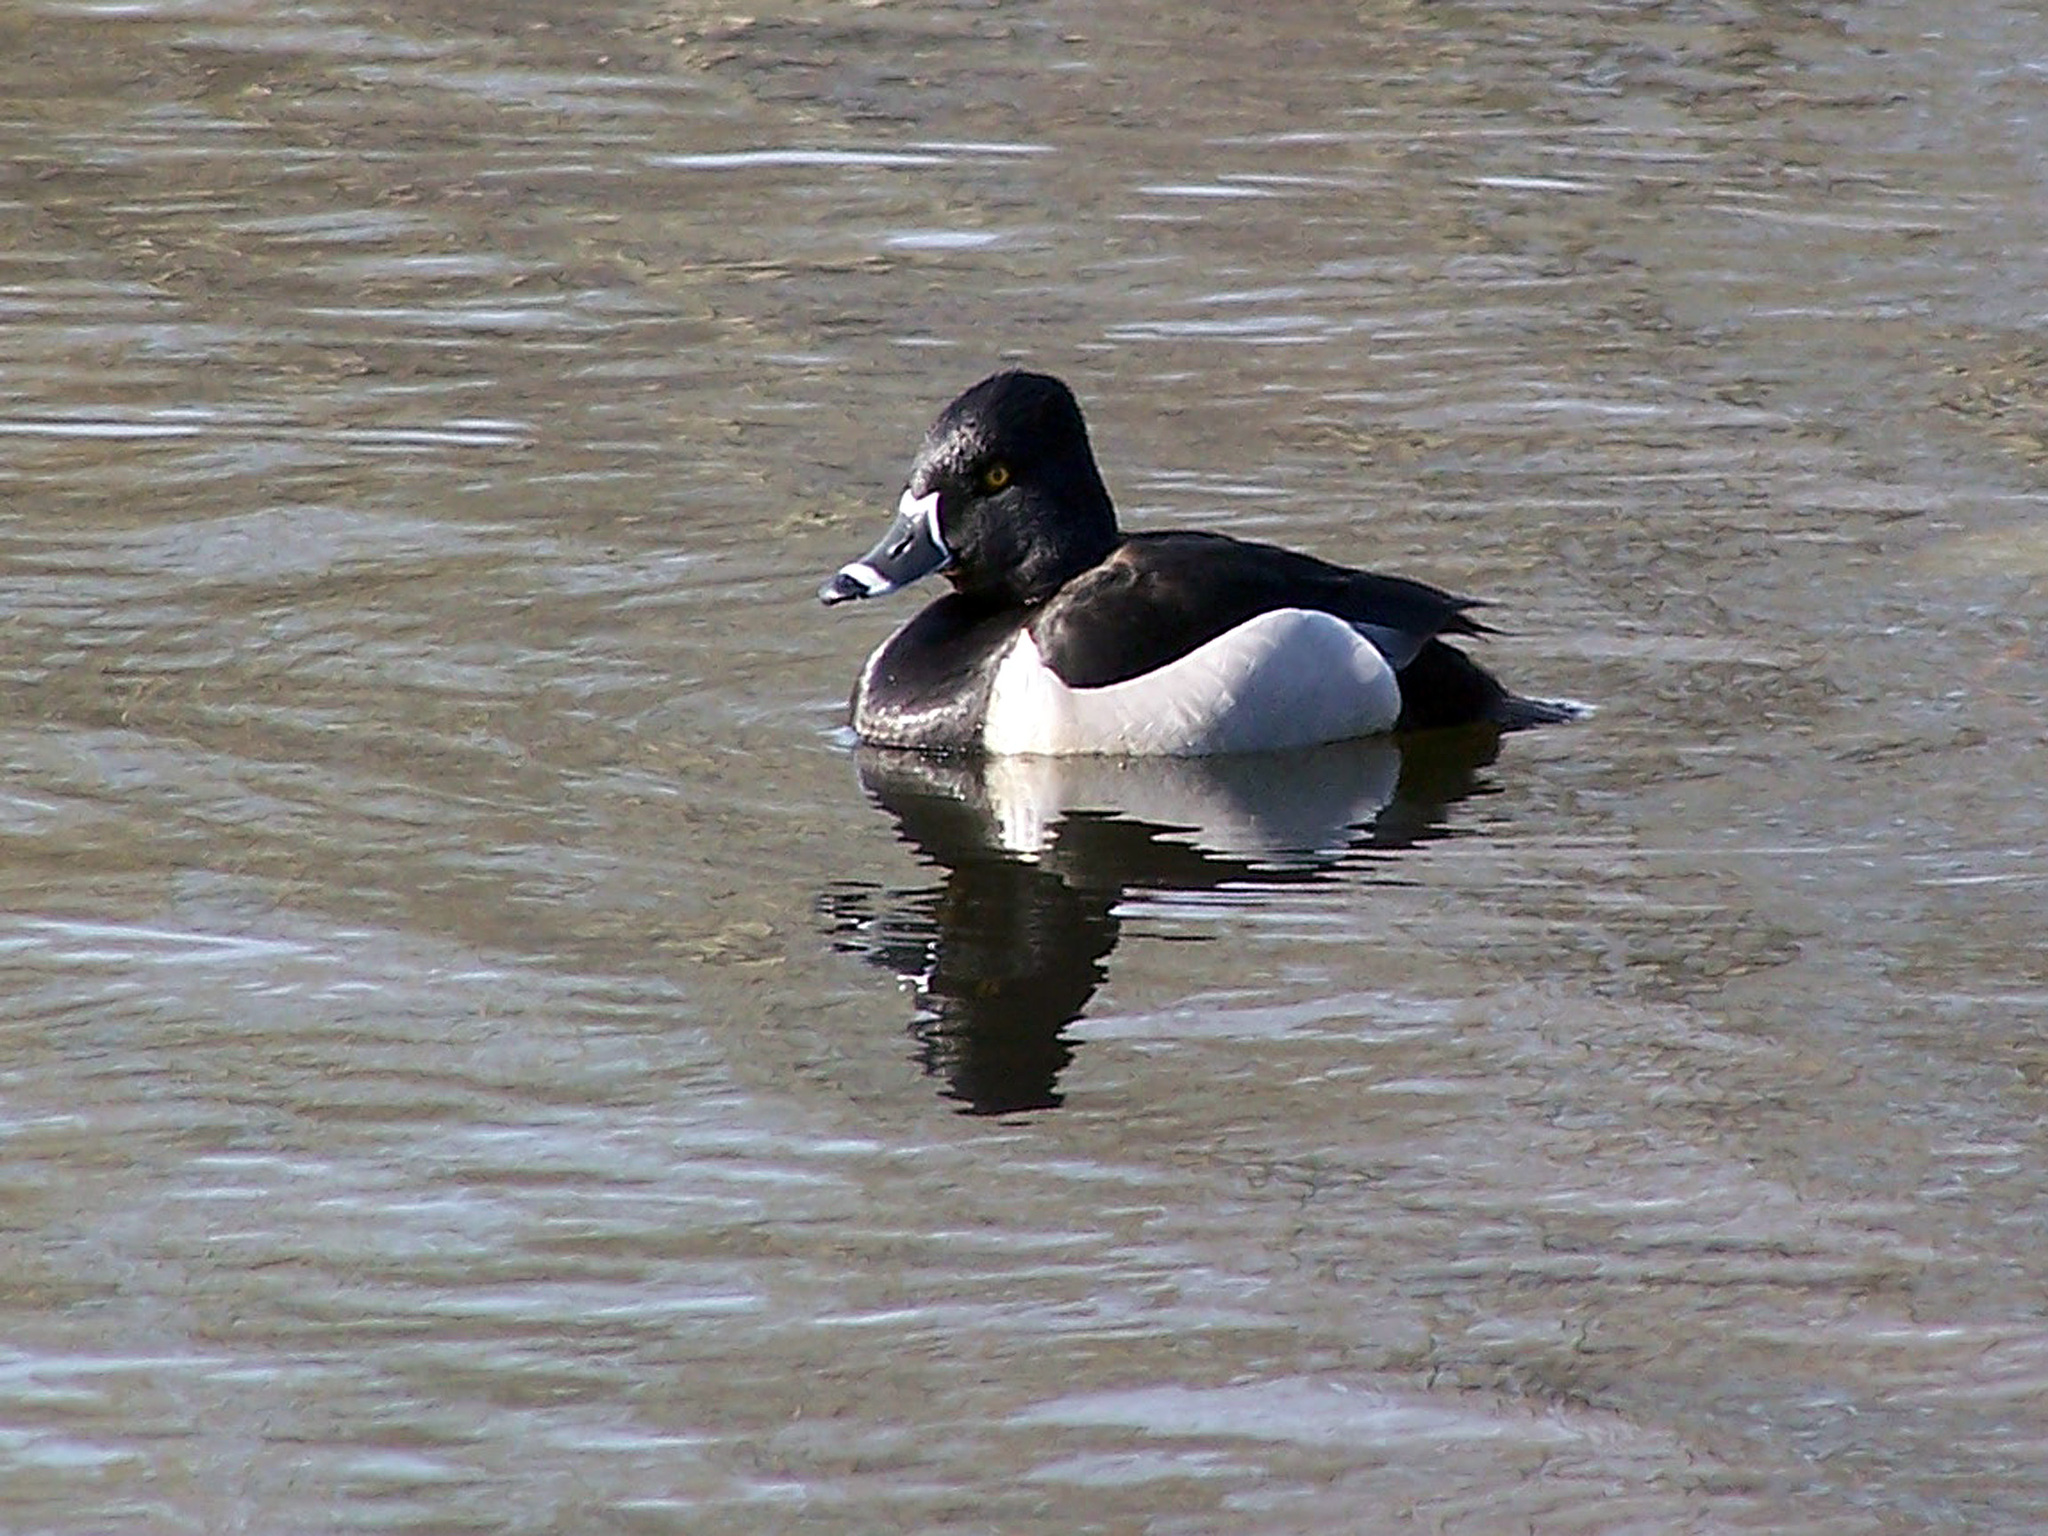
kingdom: Animalia
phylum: Chordata
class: Aves
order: Anseriformes
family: Anatidae
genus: Aythya
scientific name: Aythya collaris
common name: Ring-necked duck
